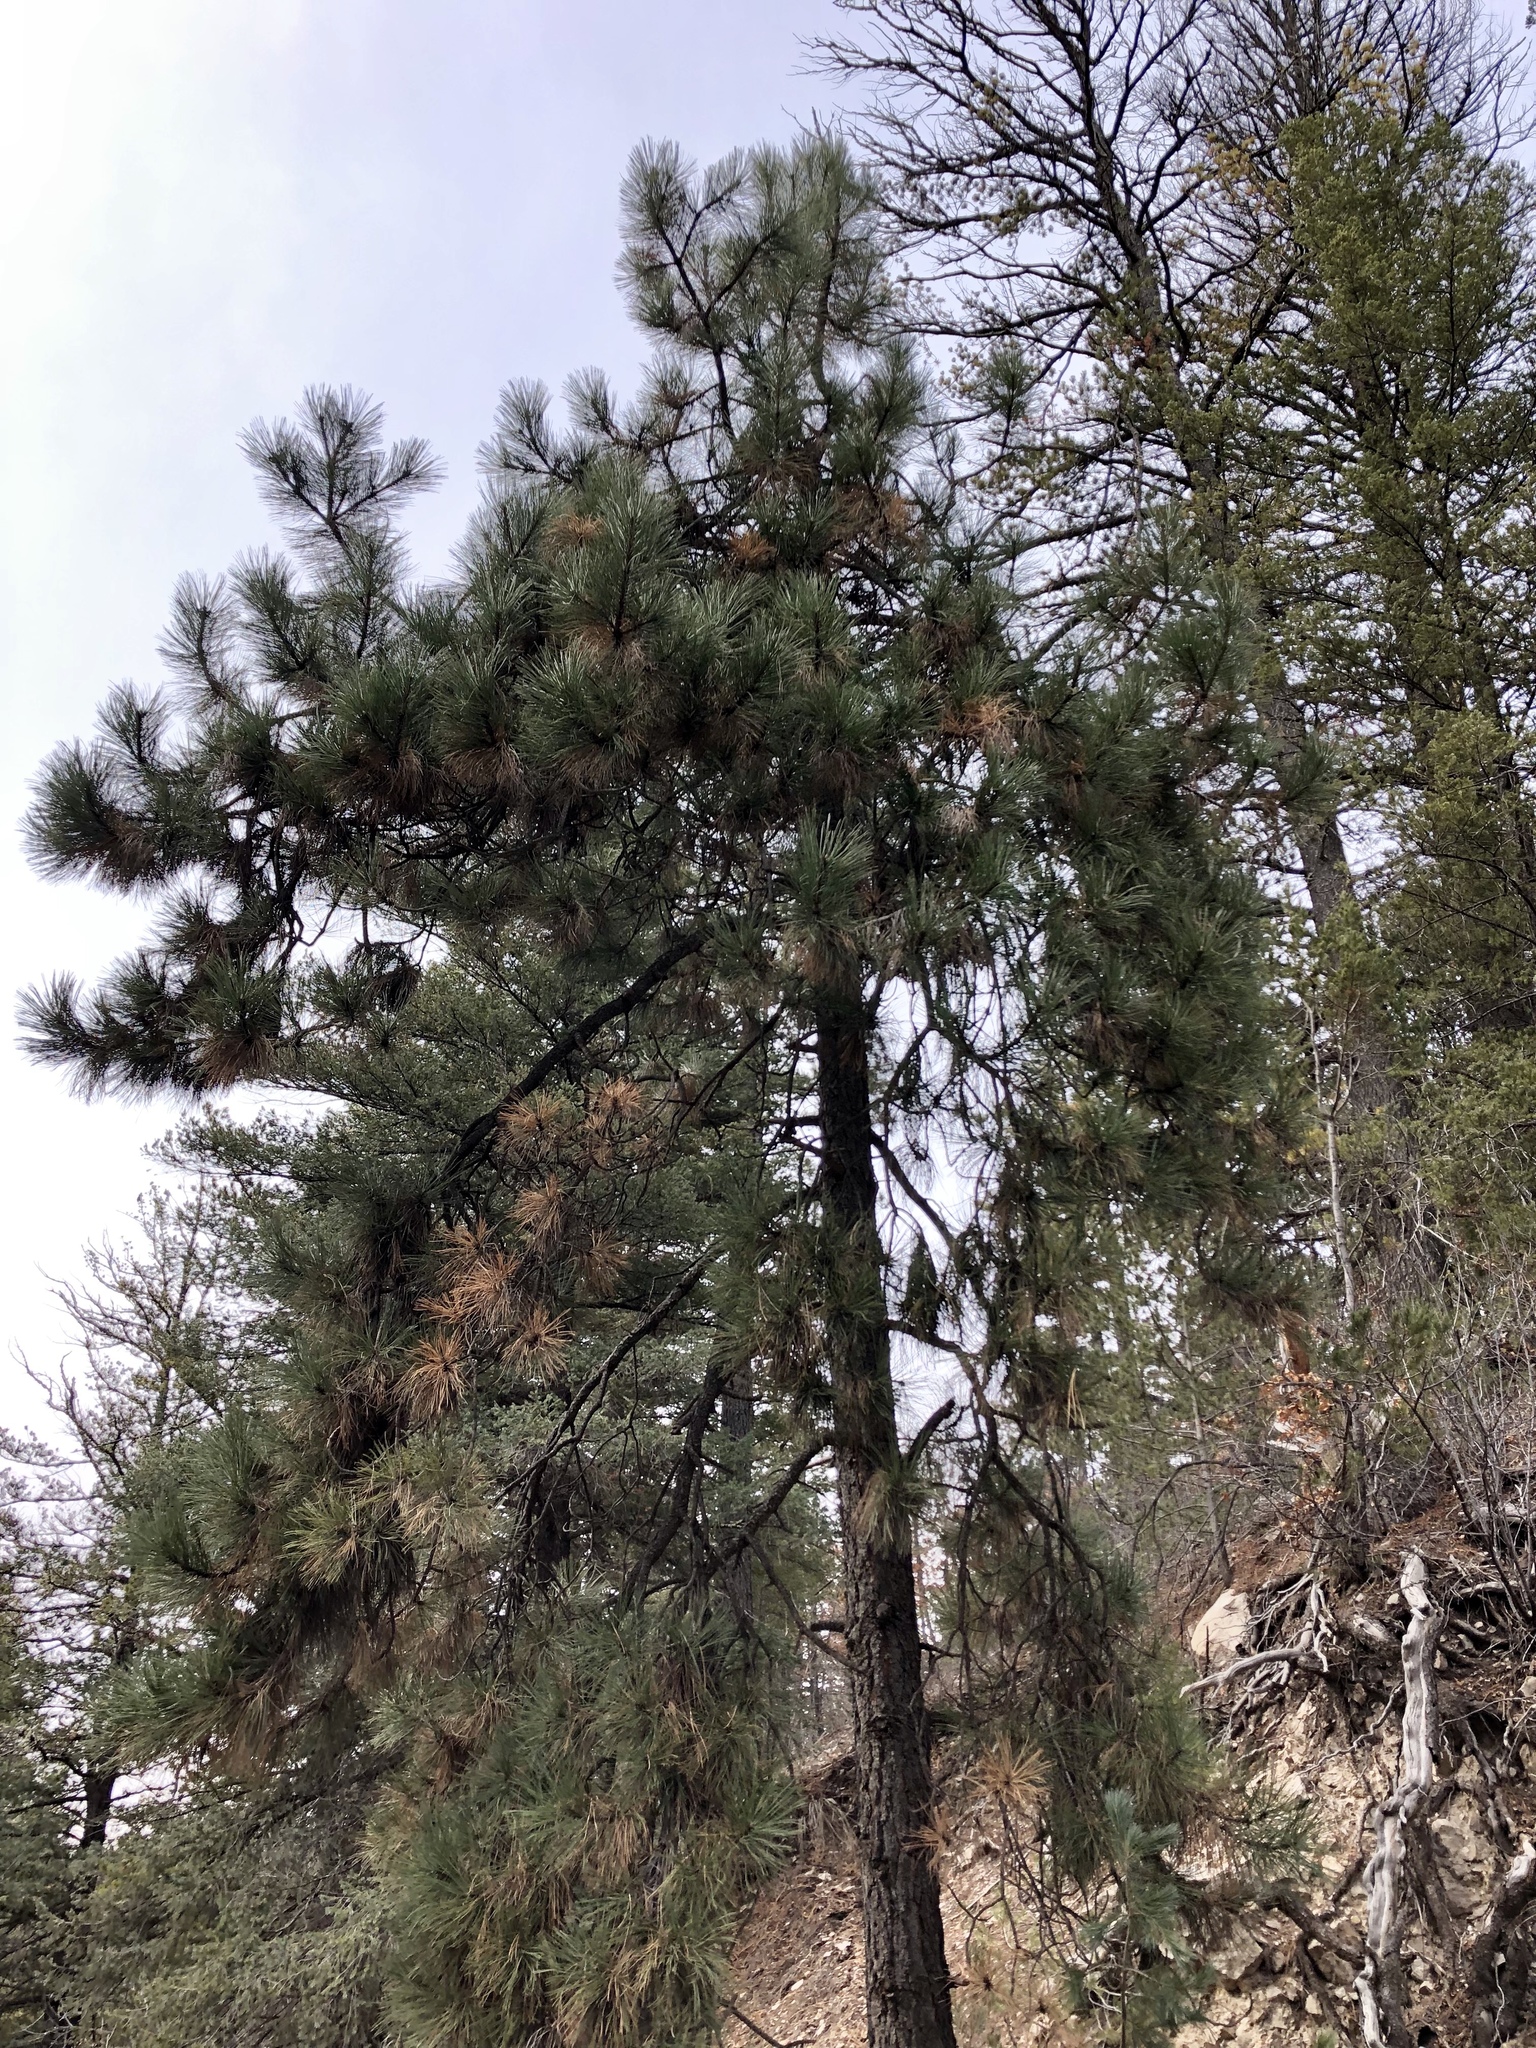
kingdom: Plantae
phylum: Tracheophyta
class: Pinopsida
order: Pinales
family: Pinaceae
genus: Pinus
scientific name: Pinus ponderosa
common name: Western yellow-pine
